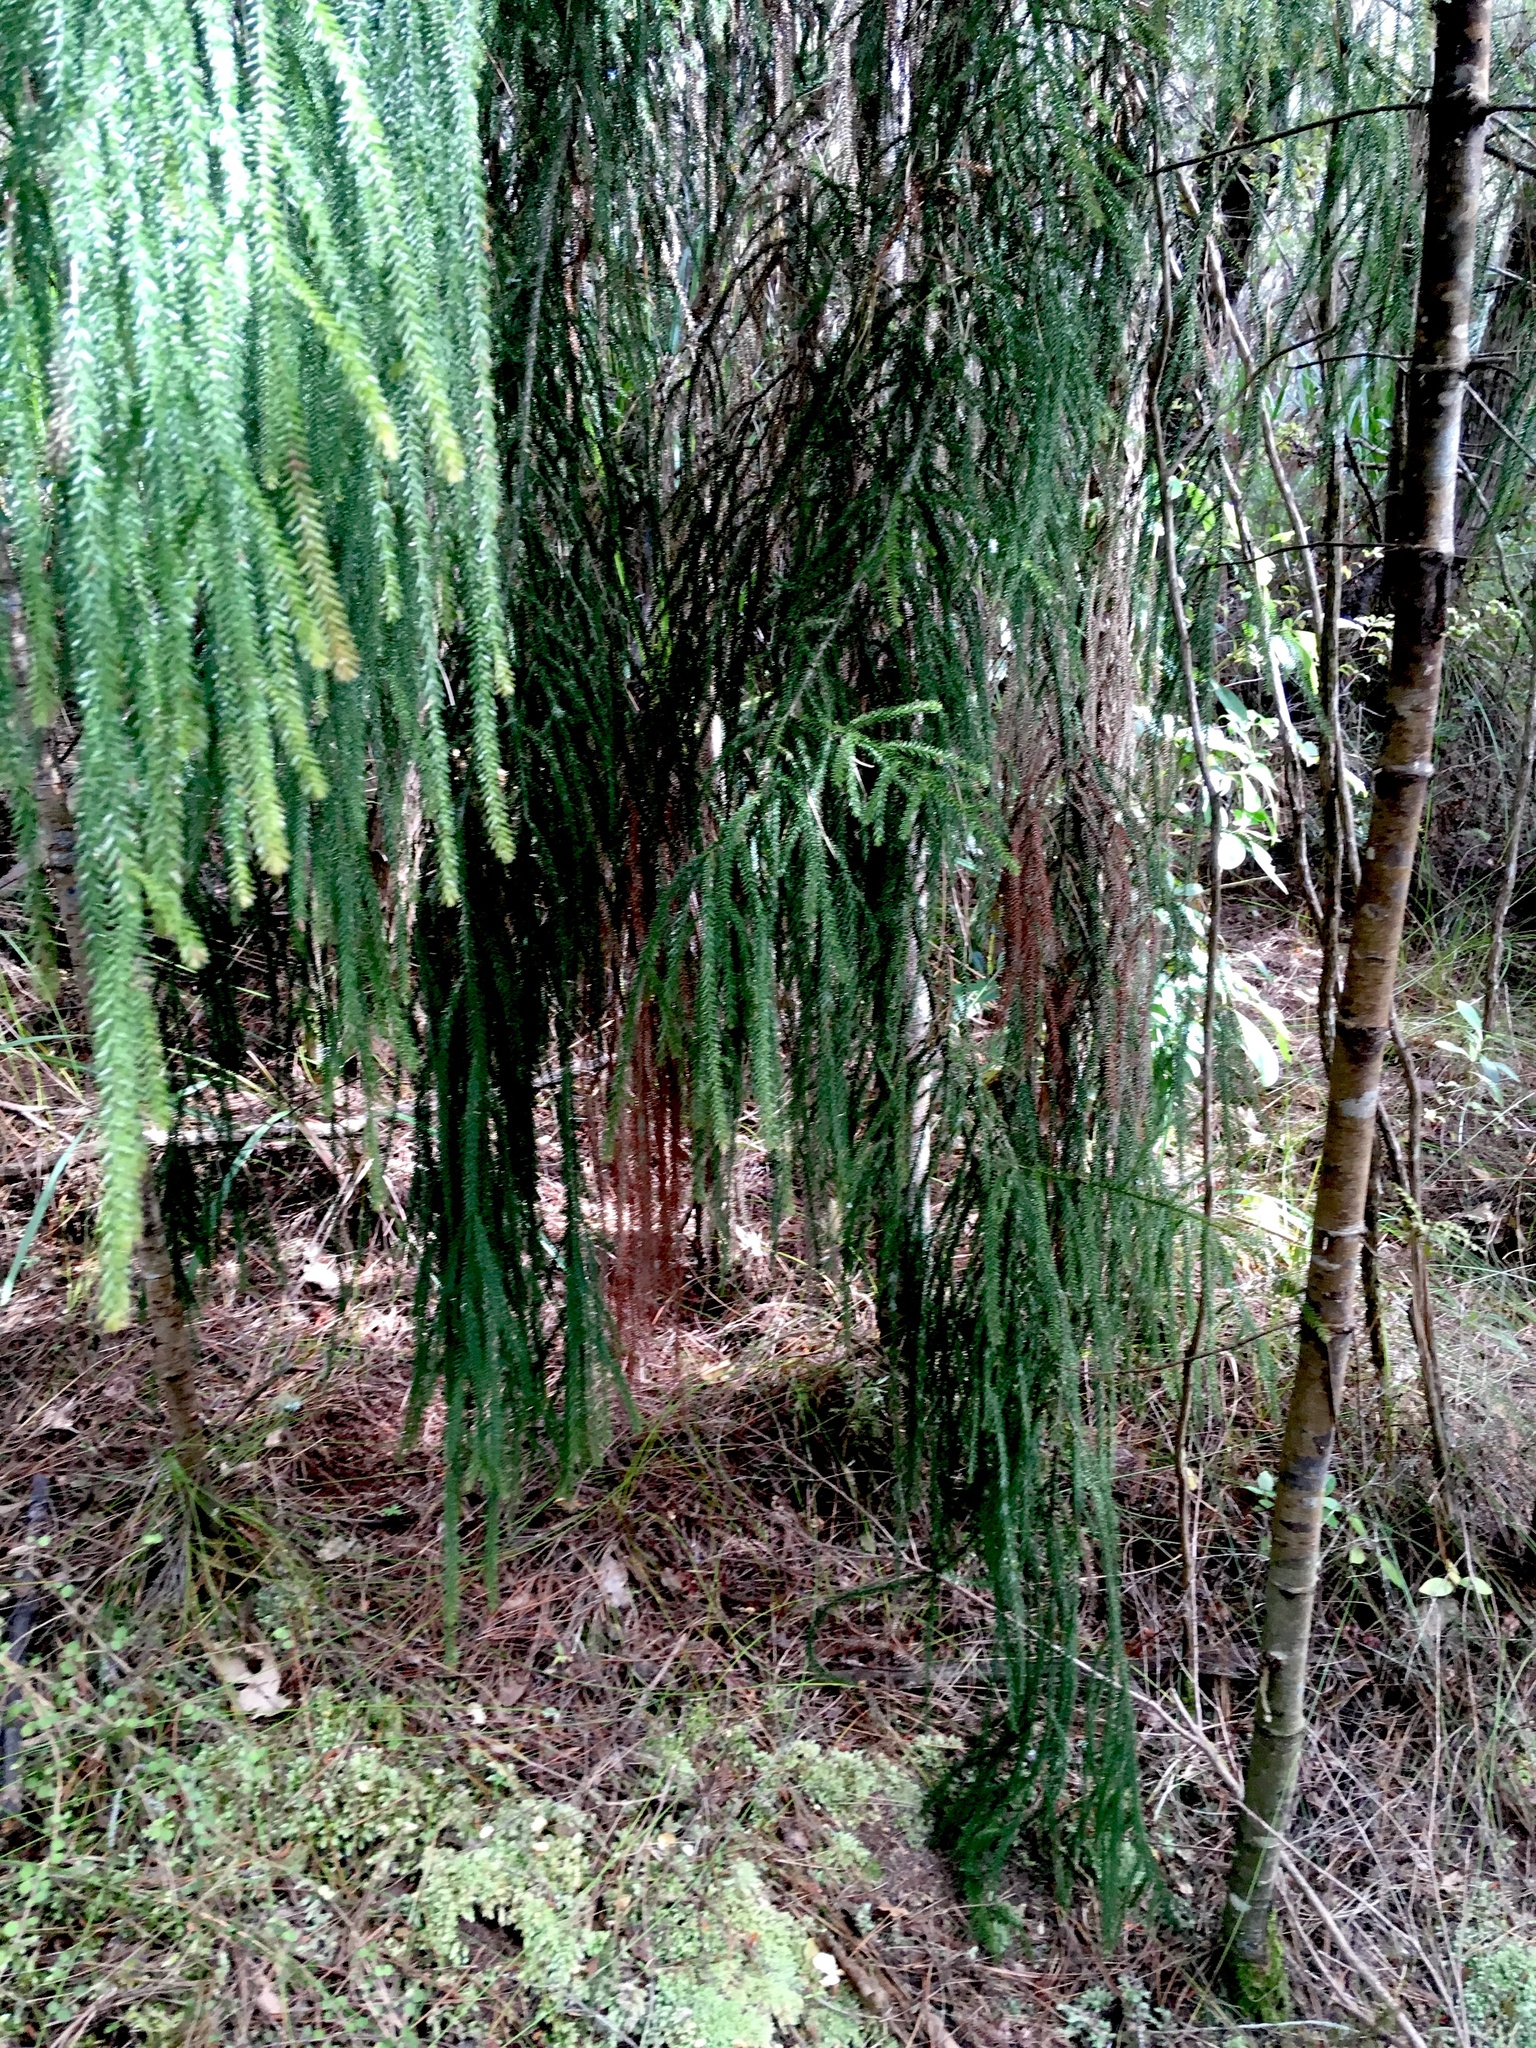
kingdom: Plantae
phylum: Tracheophyta
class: Pinopsida
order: Pinales
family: Podocarpaceae
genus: Dacrydium
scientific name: Dacrydium cupressinum
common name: Red pine
